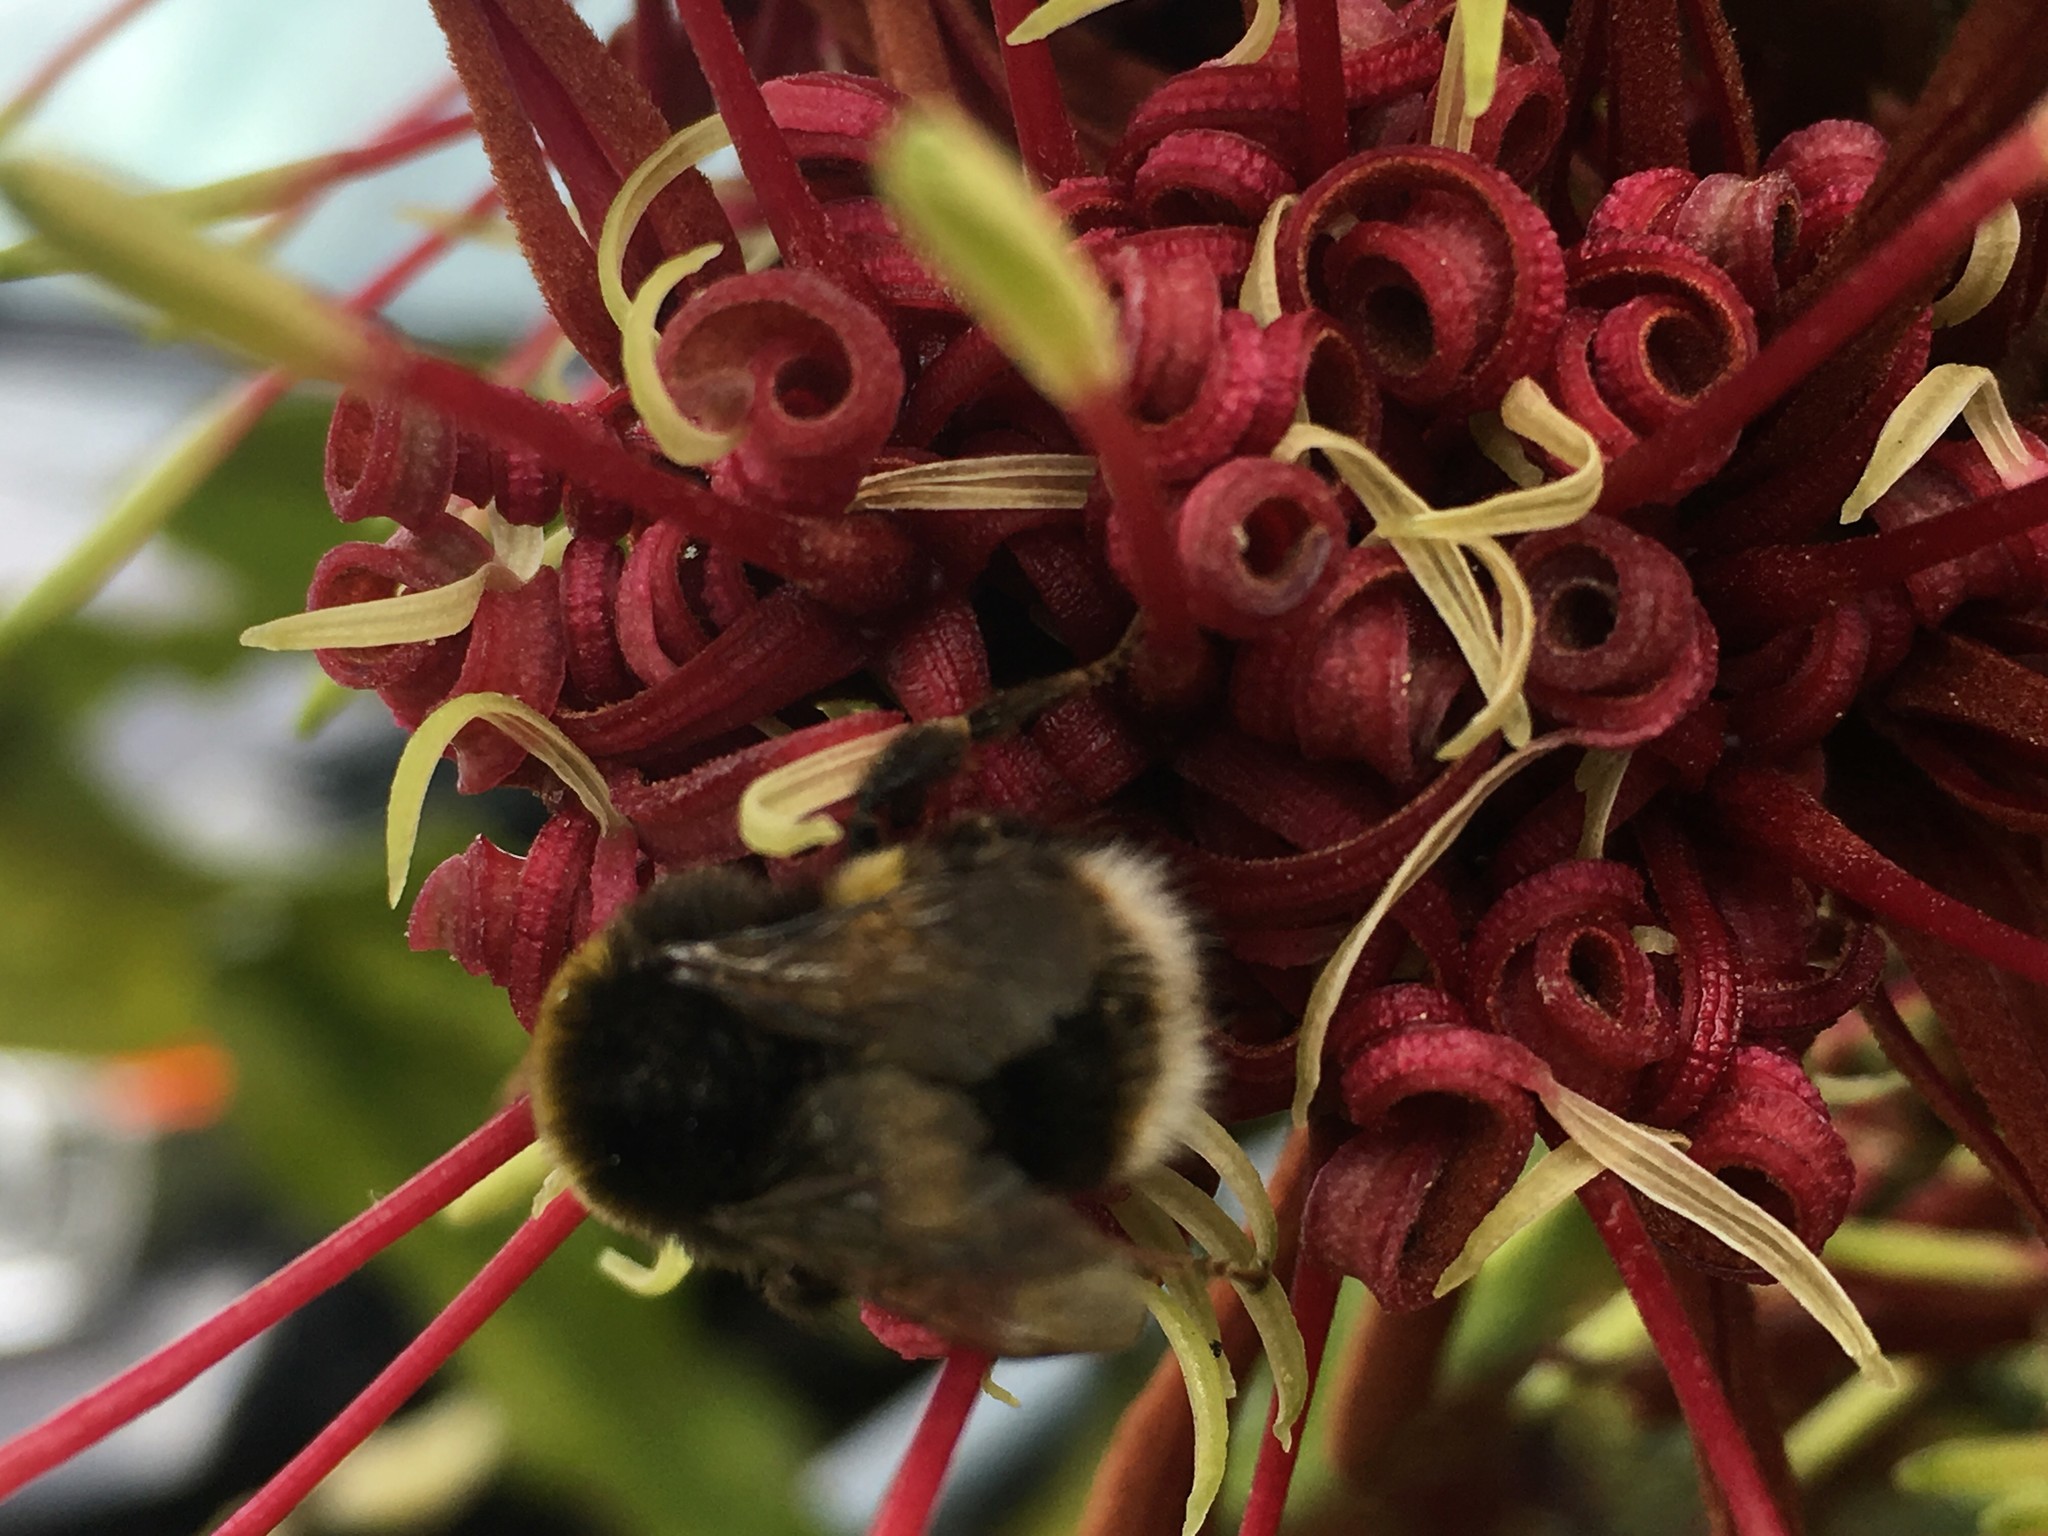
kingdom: Animalia
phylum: Arthropoda
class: Insecta
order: Hymenoptera
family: Apidae
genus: Bombus
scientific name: Bombus terrestris
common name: Buff-tailed bumblebee
